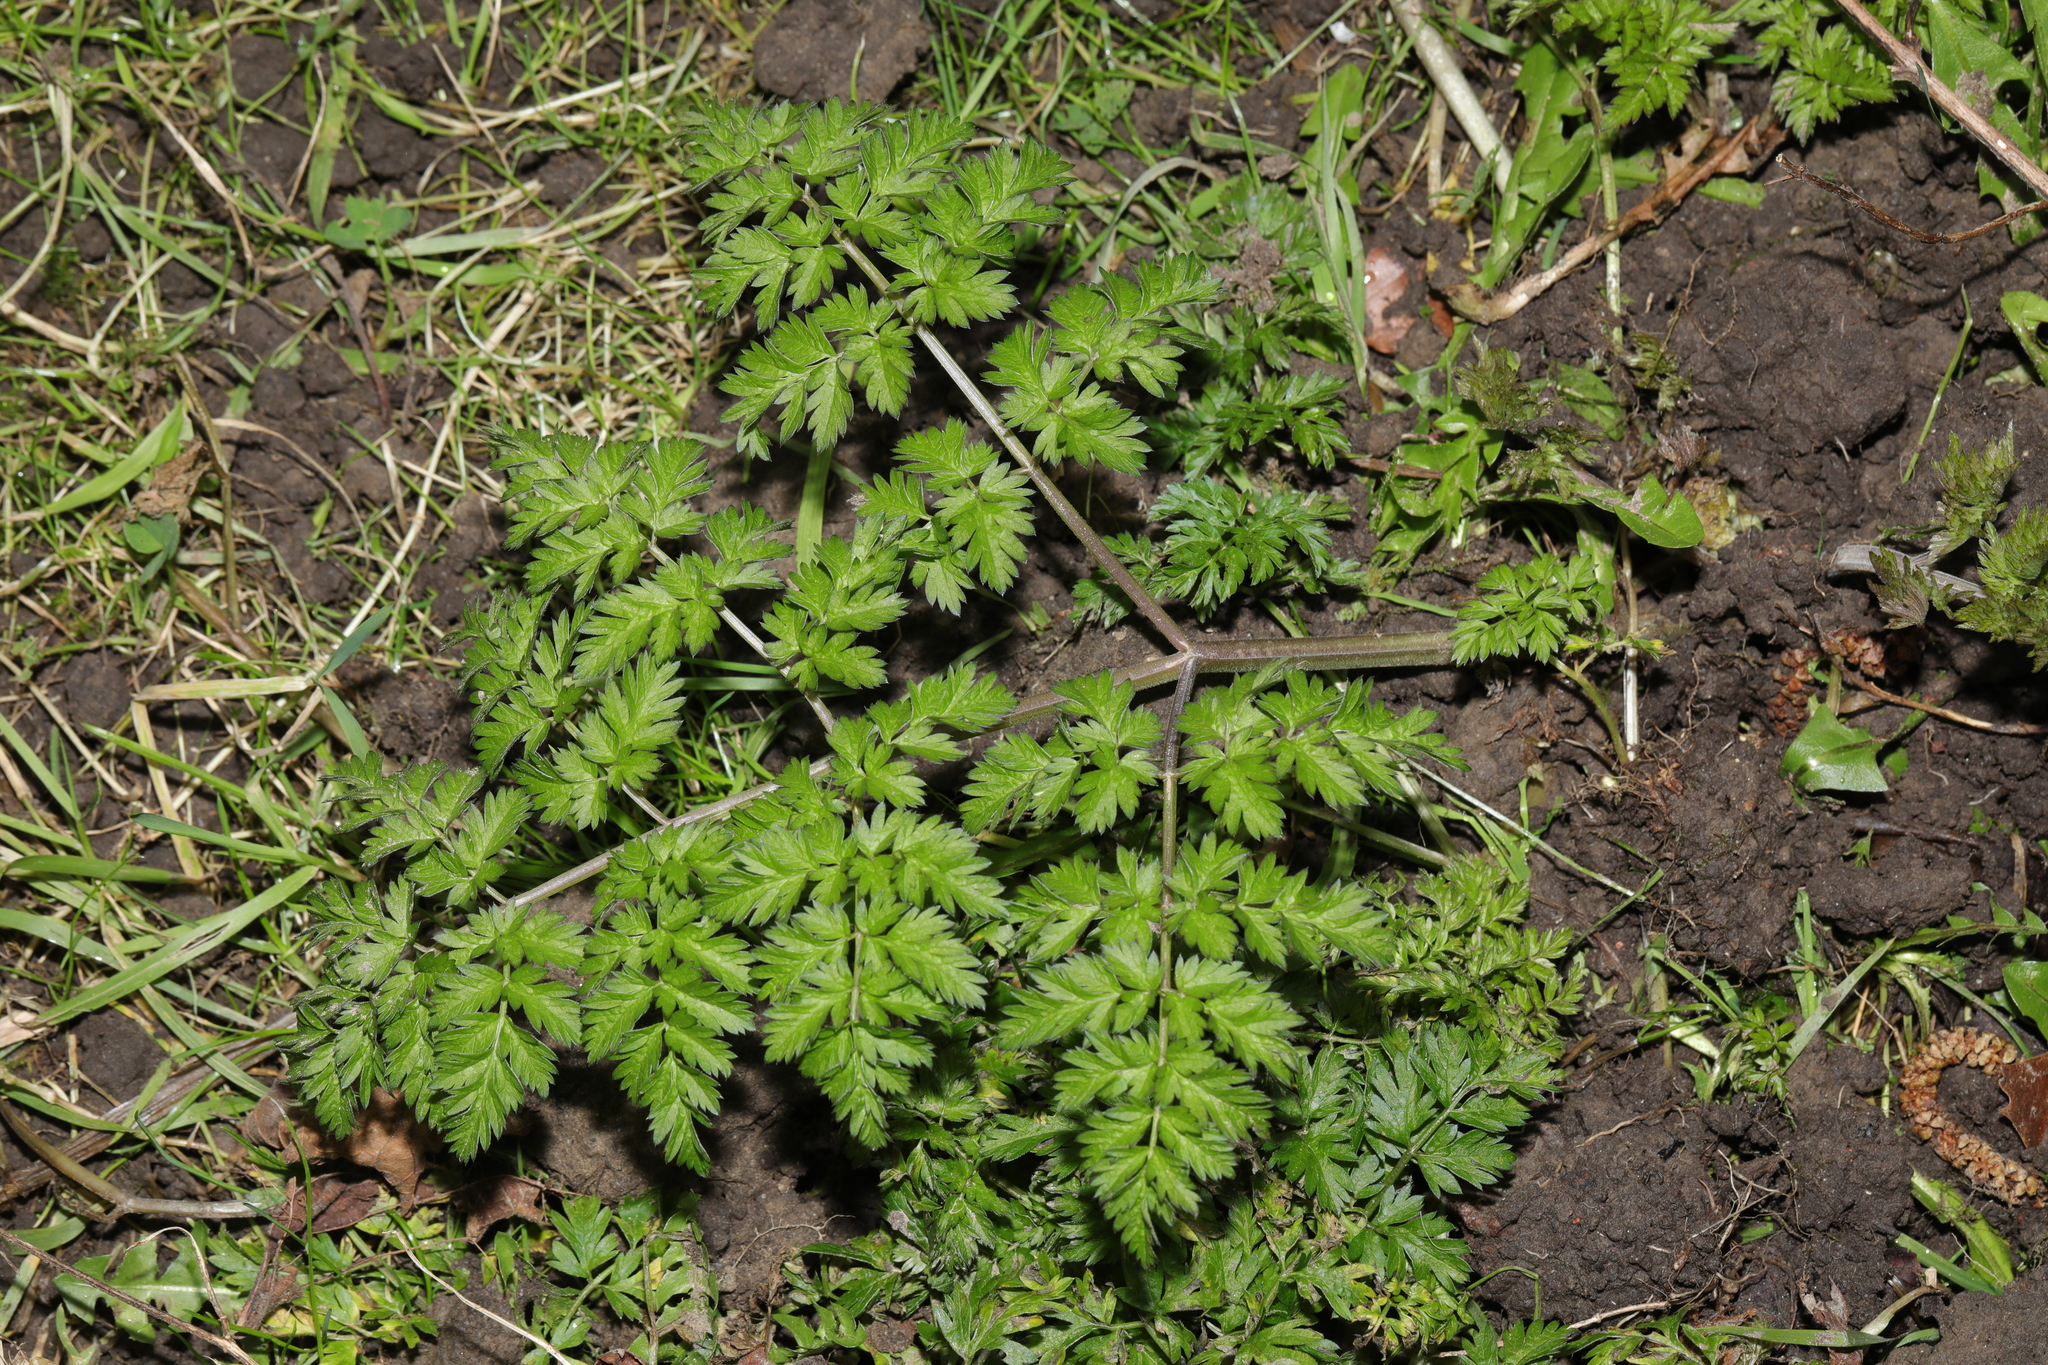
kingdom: Plantae
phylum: Tracheophyta
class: Magnoliopsida
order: Apiales
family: Apiaceae
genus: Anthriscus
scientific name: Anthriscus sylvestris
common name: Cow parsley
